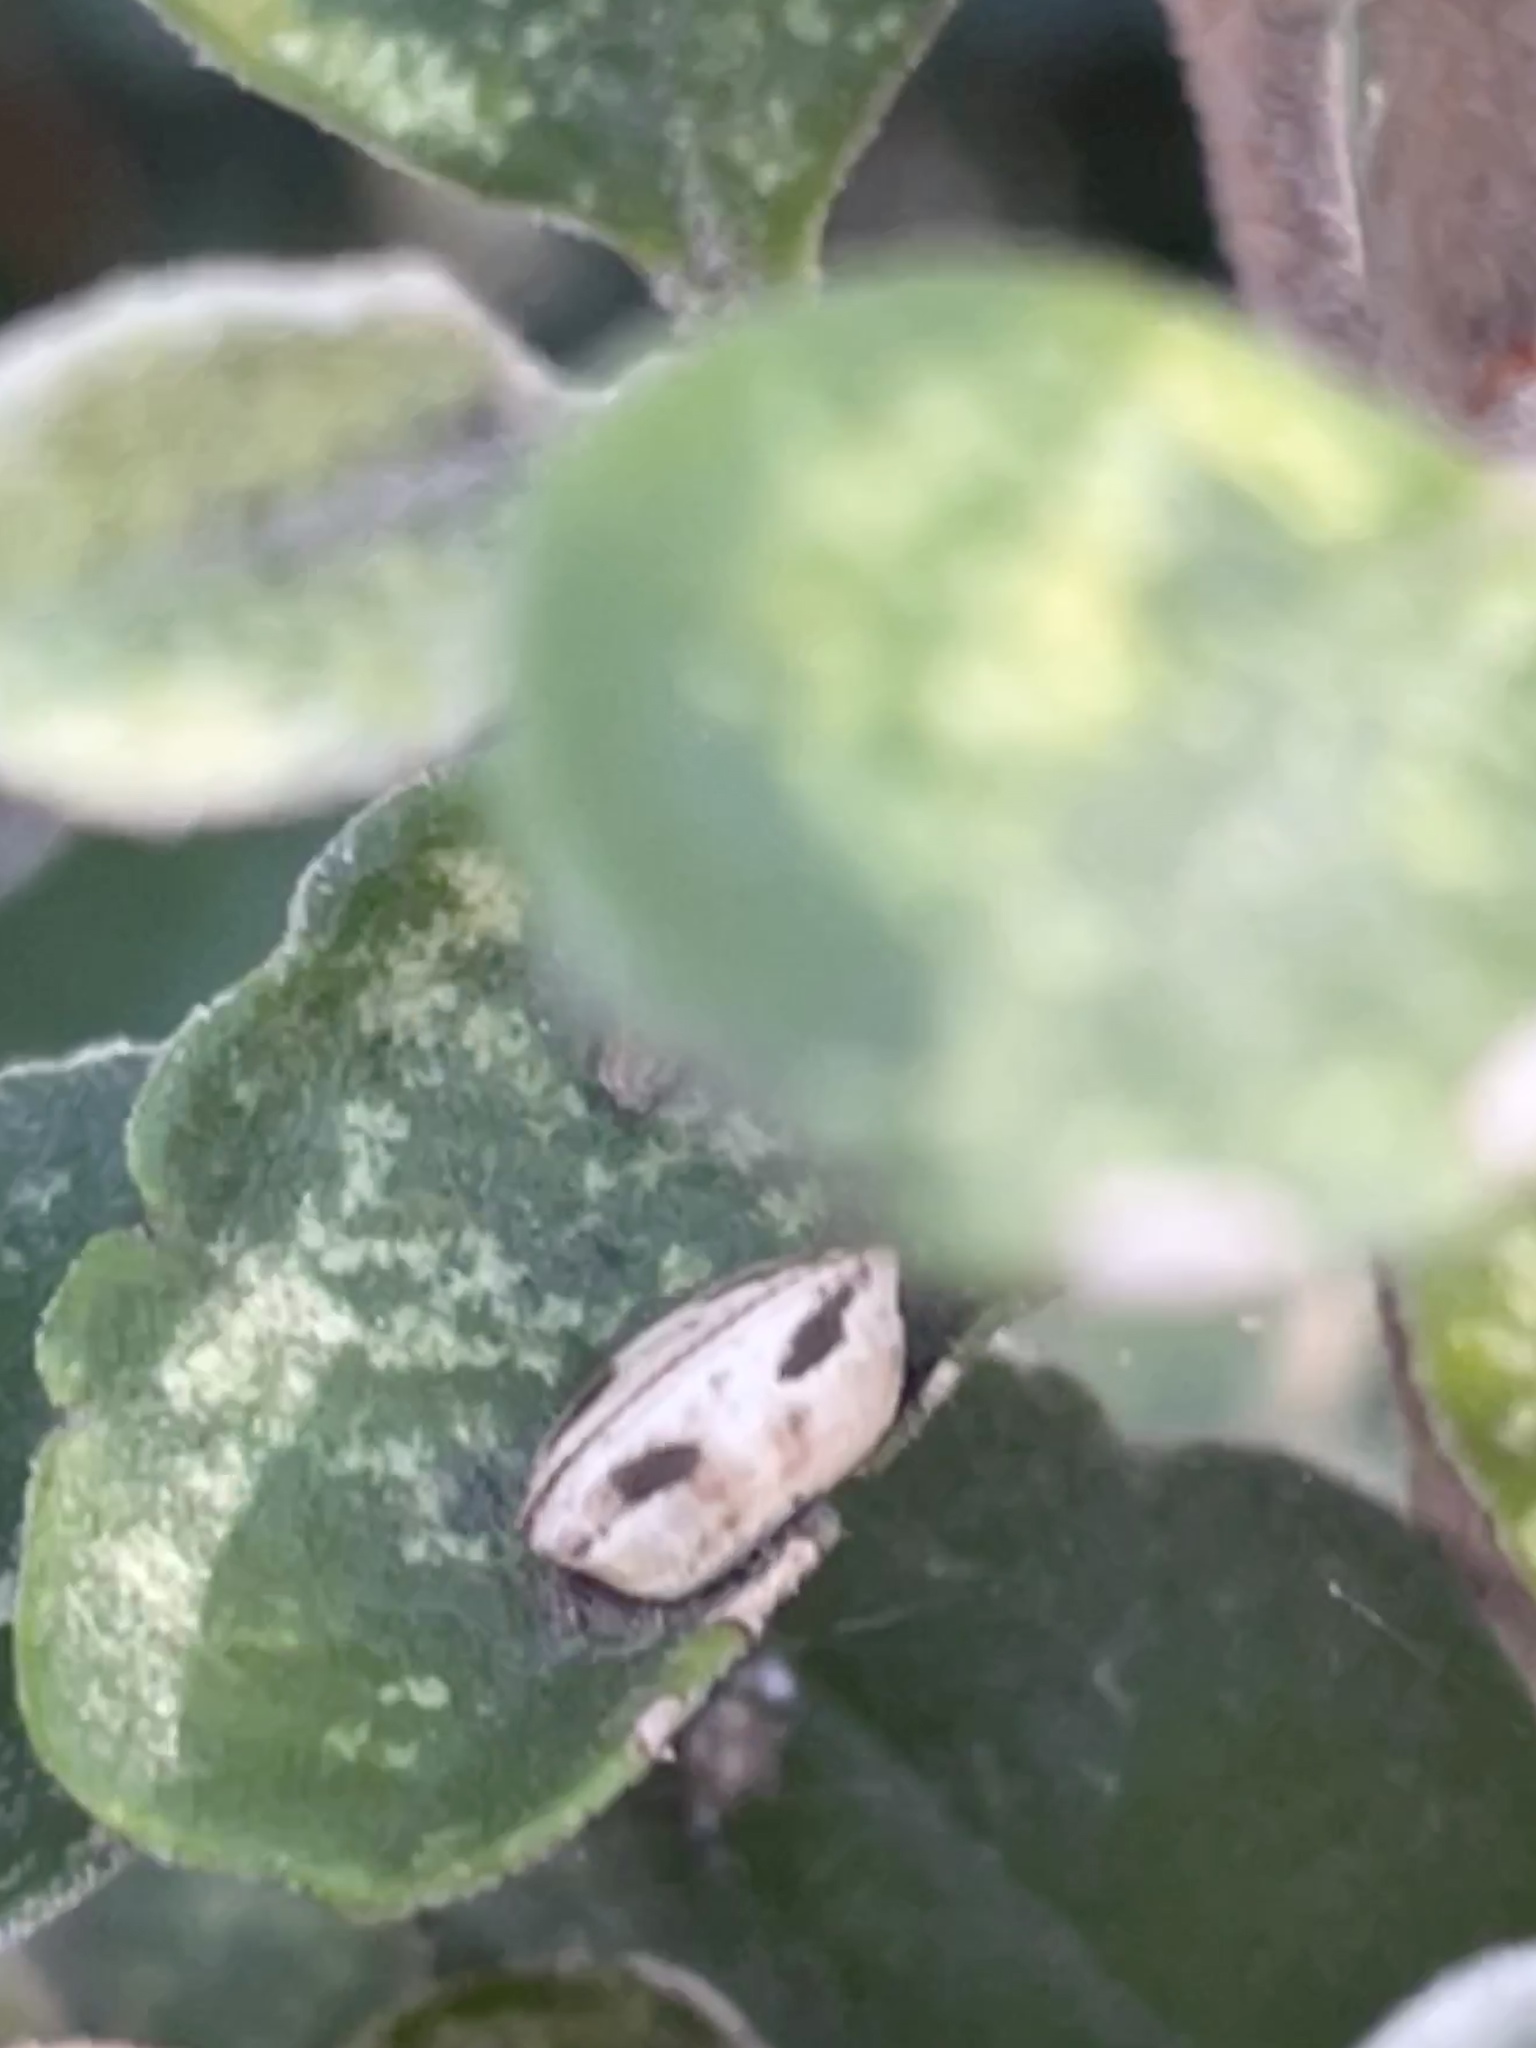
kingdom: Animalia
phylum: Arthropoda
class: Insecta
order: Blattodea
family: Ectobiidae
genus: Balta
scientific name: Balta bicolor
